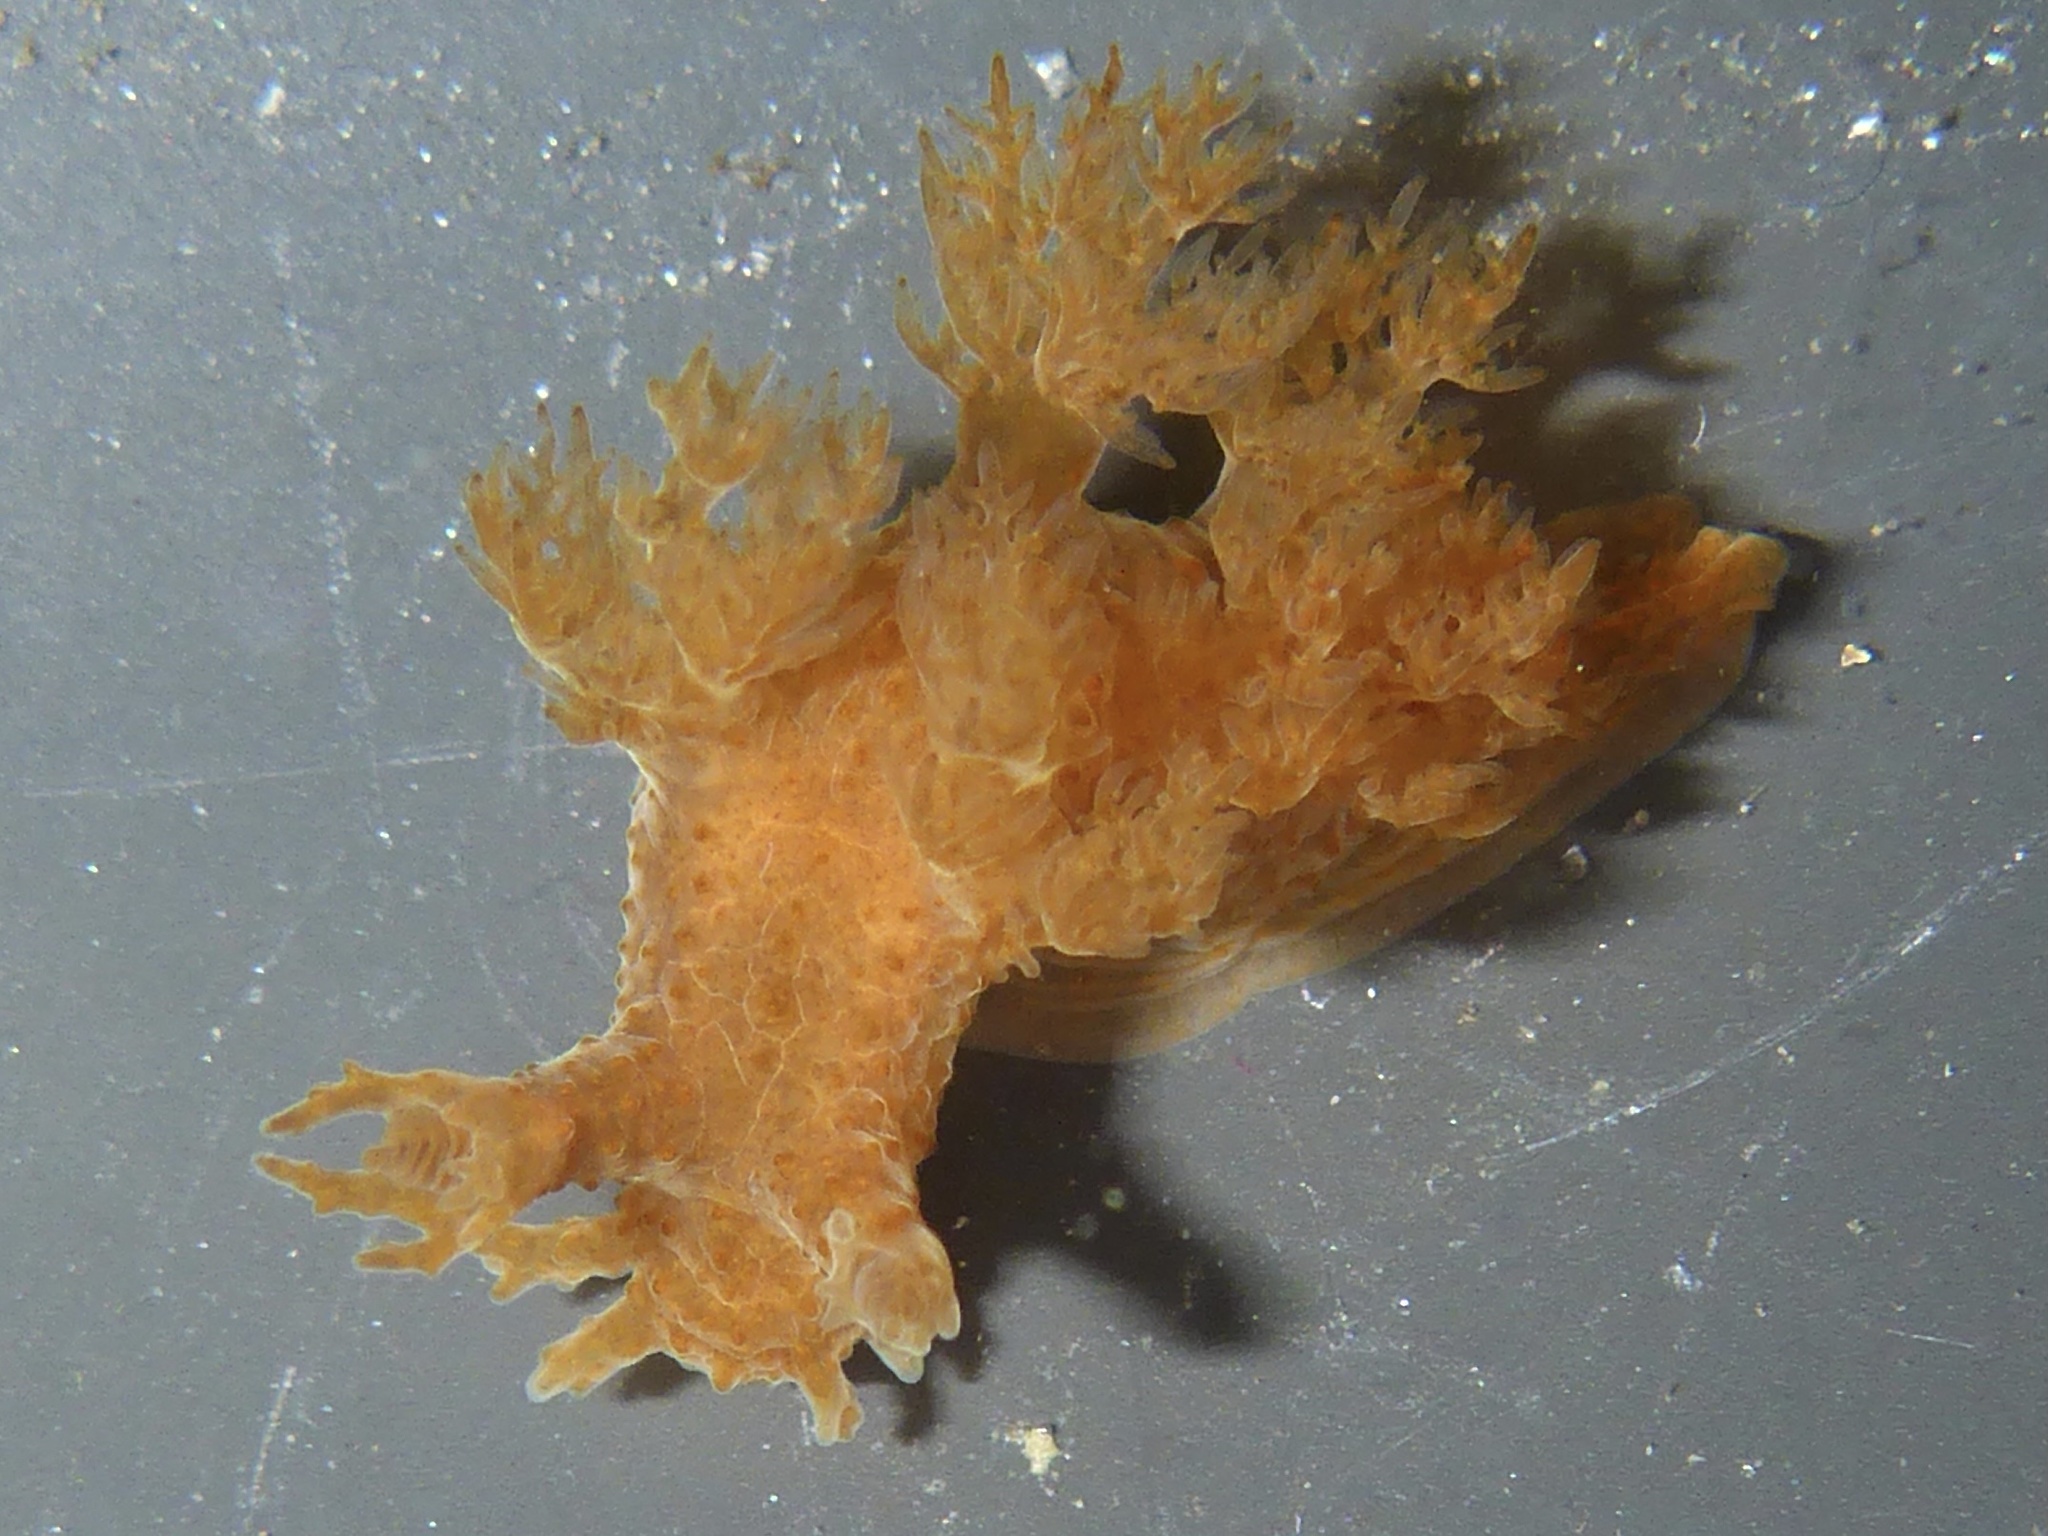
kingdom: Animalia
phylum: Mollusca
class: Gastropoda
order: Nudibranchia
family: Dendronotidae
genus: Dendronotus
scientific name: Dendronotus subramosus
